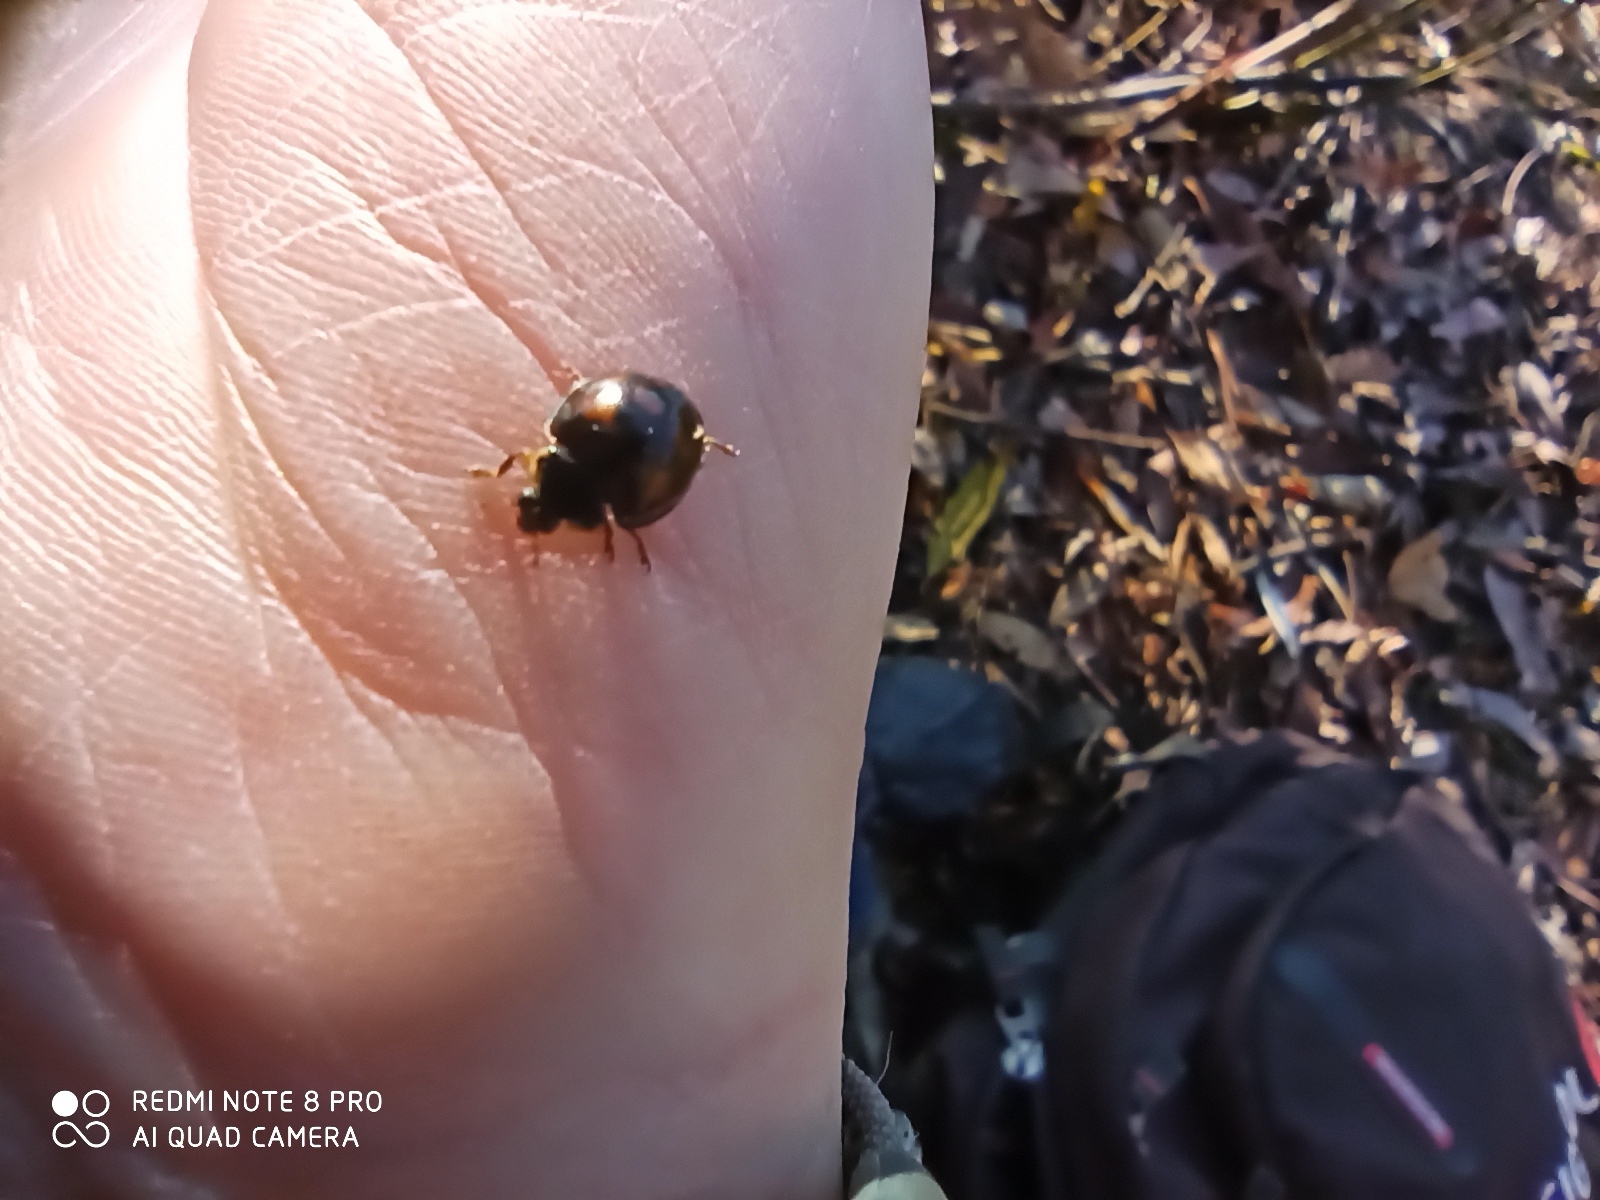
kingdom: Animalia
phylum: Arthropoda
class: Insecta
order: Coleoptera
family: Coccinellidae
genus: Harmonia
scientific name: Harmonia axyridis
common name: Harlequin ladybird
